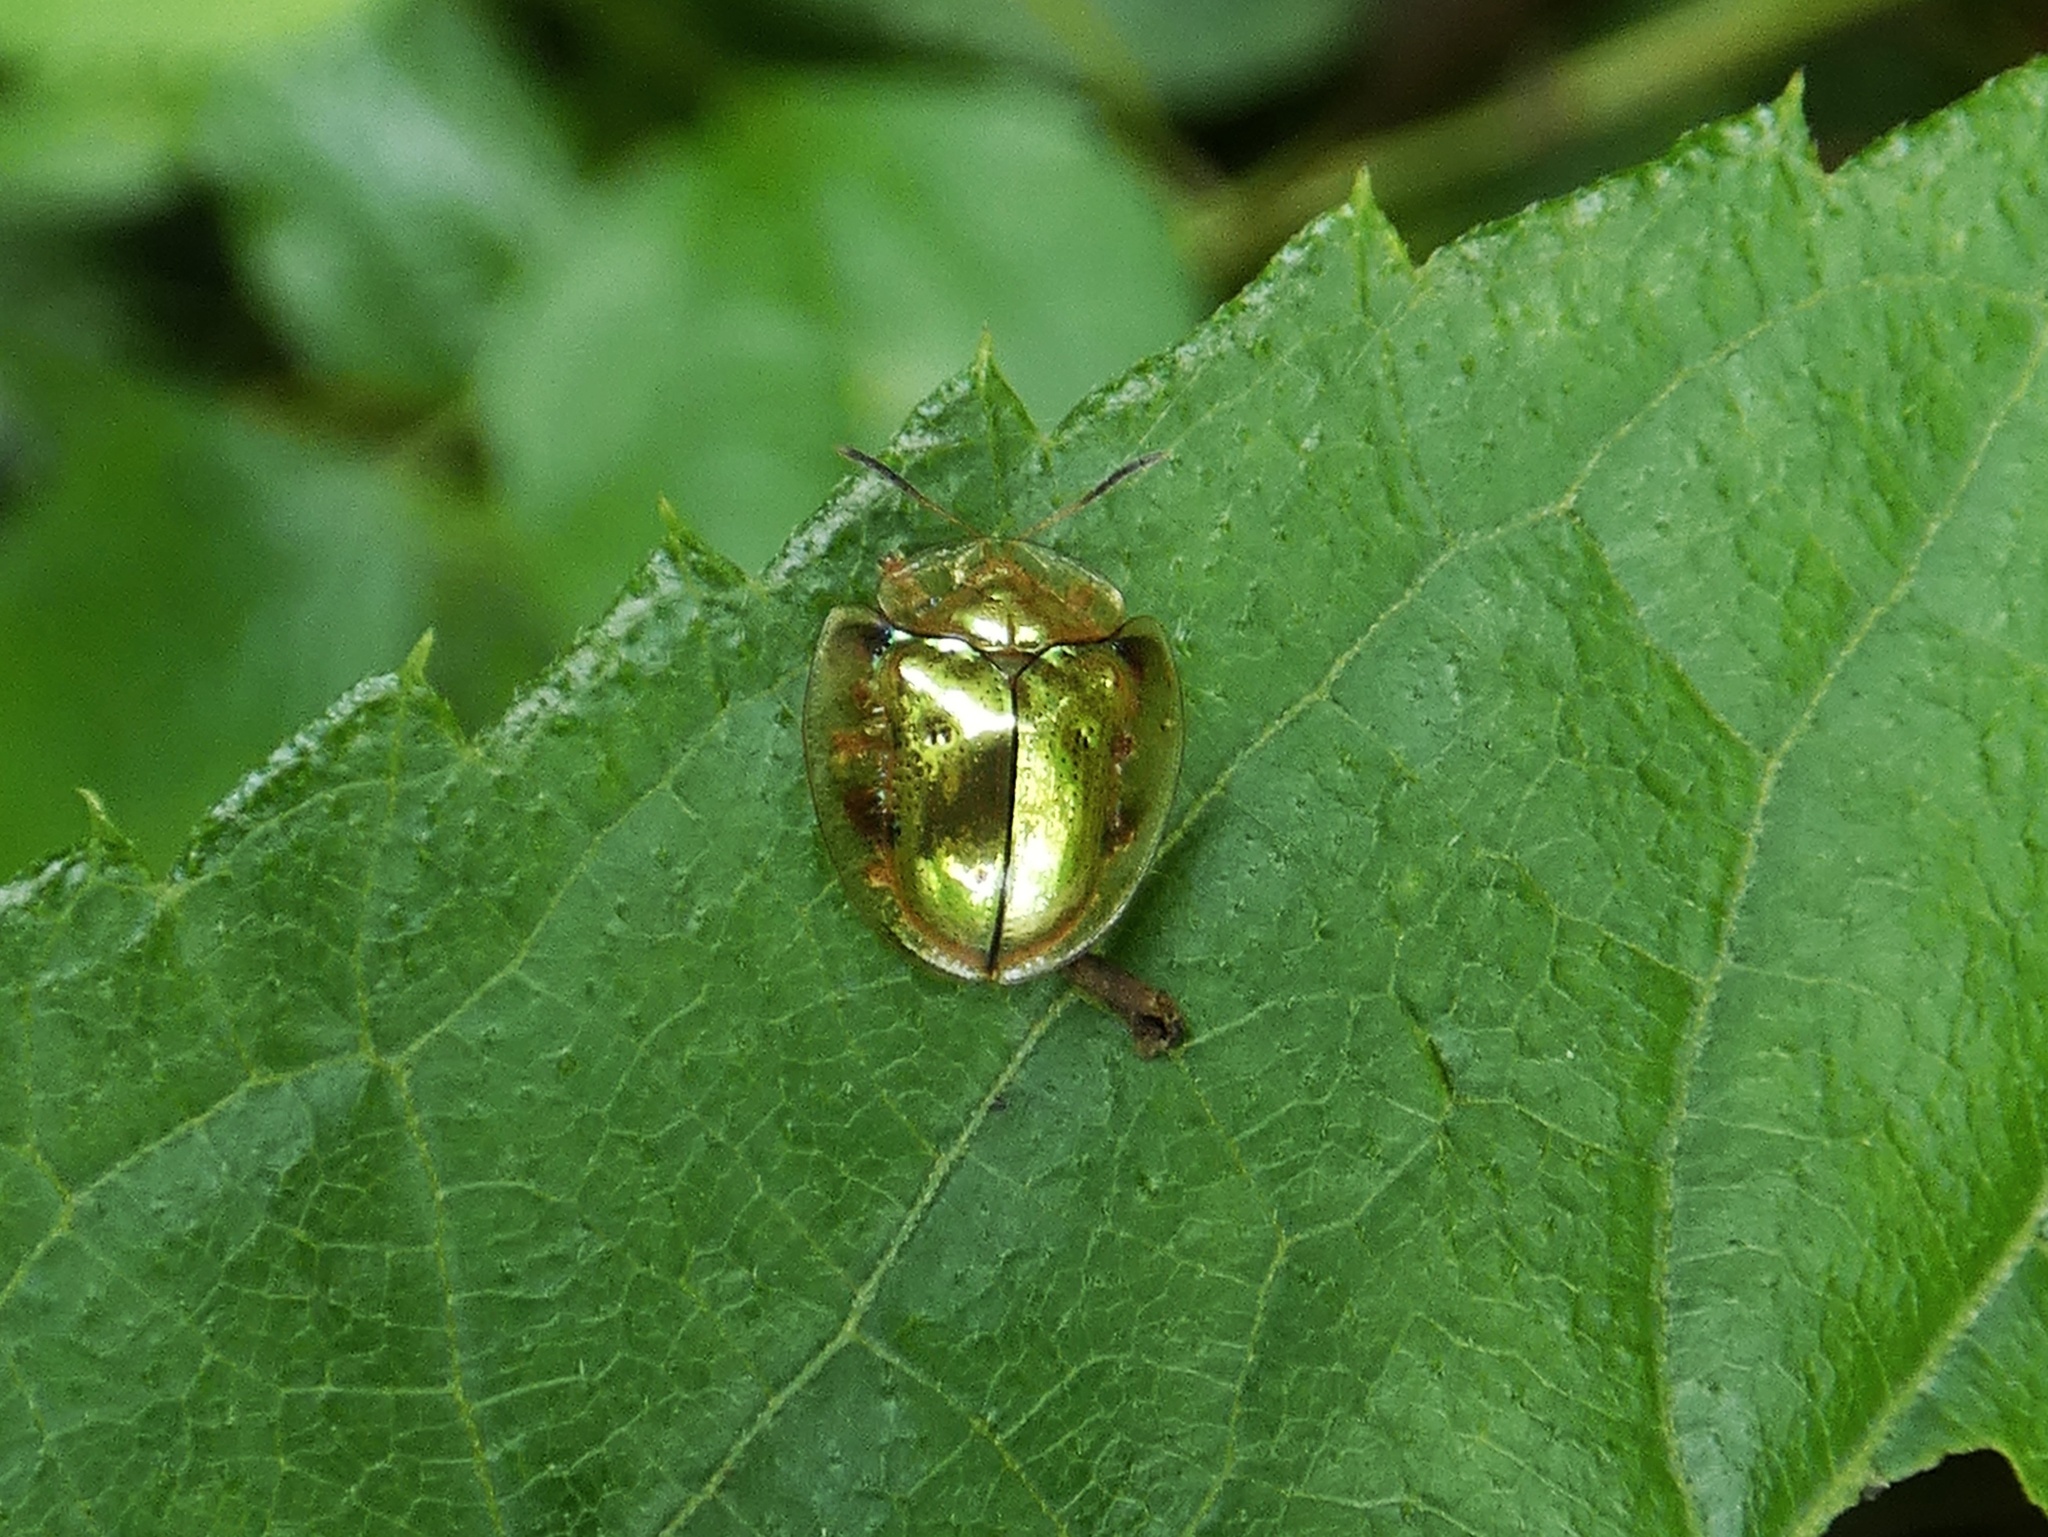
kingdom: Animalia
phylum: Arthropoda
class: Insecta
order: Coleoptera
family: Chrysomelidae
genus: Charidotella
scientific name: Charidotella sinuata
